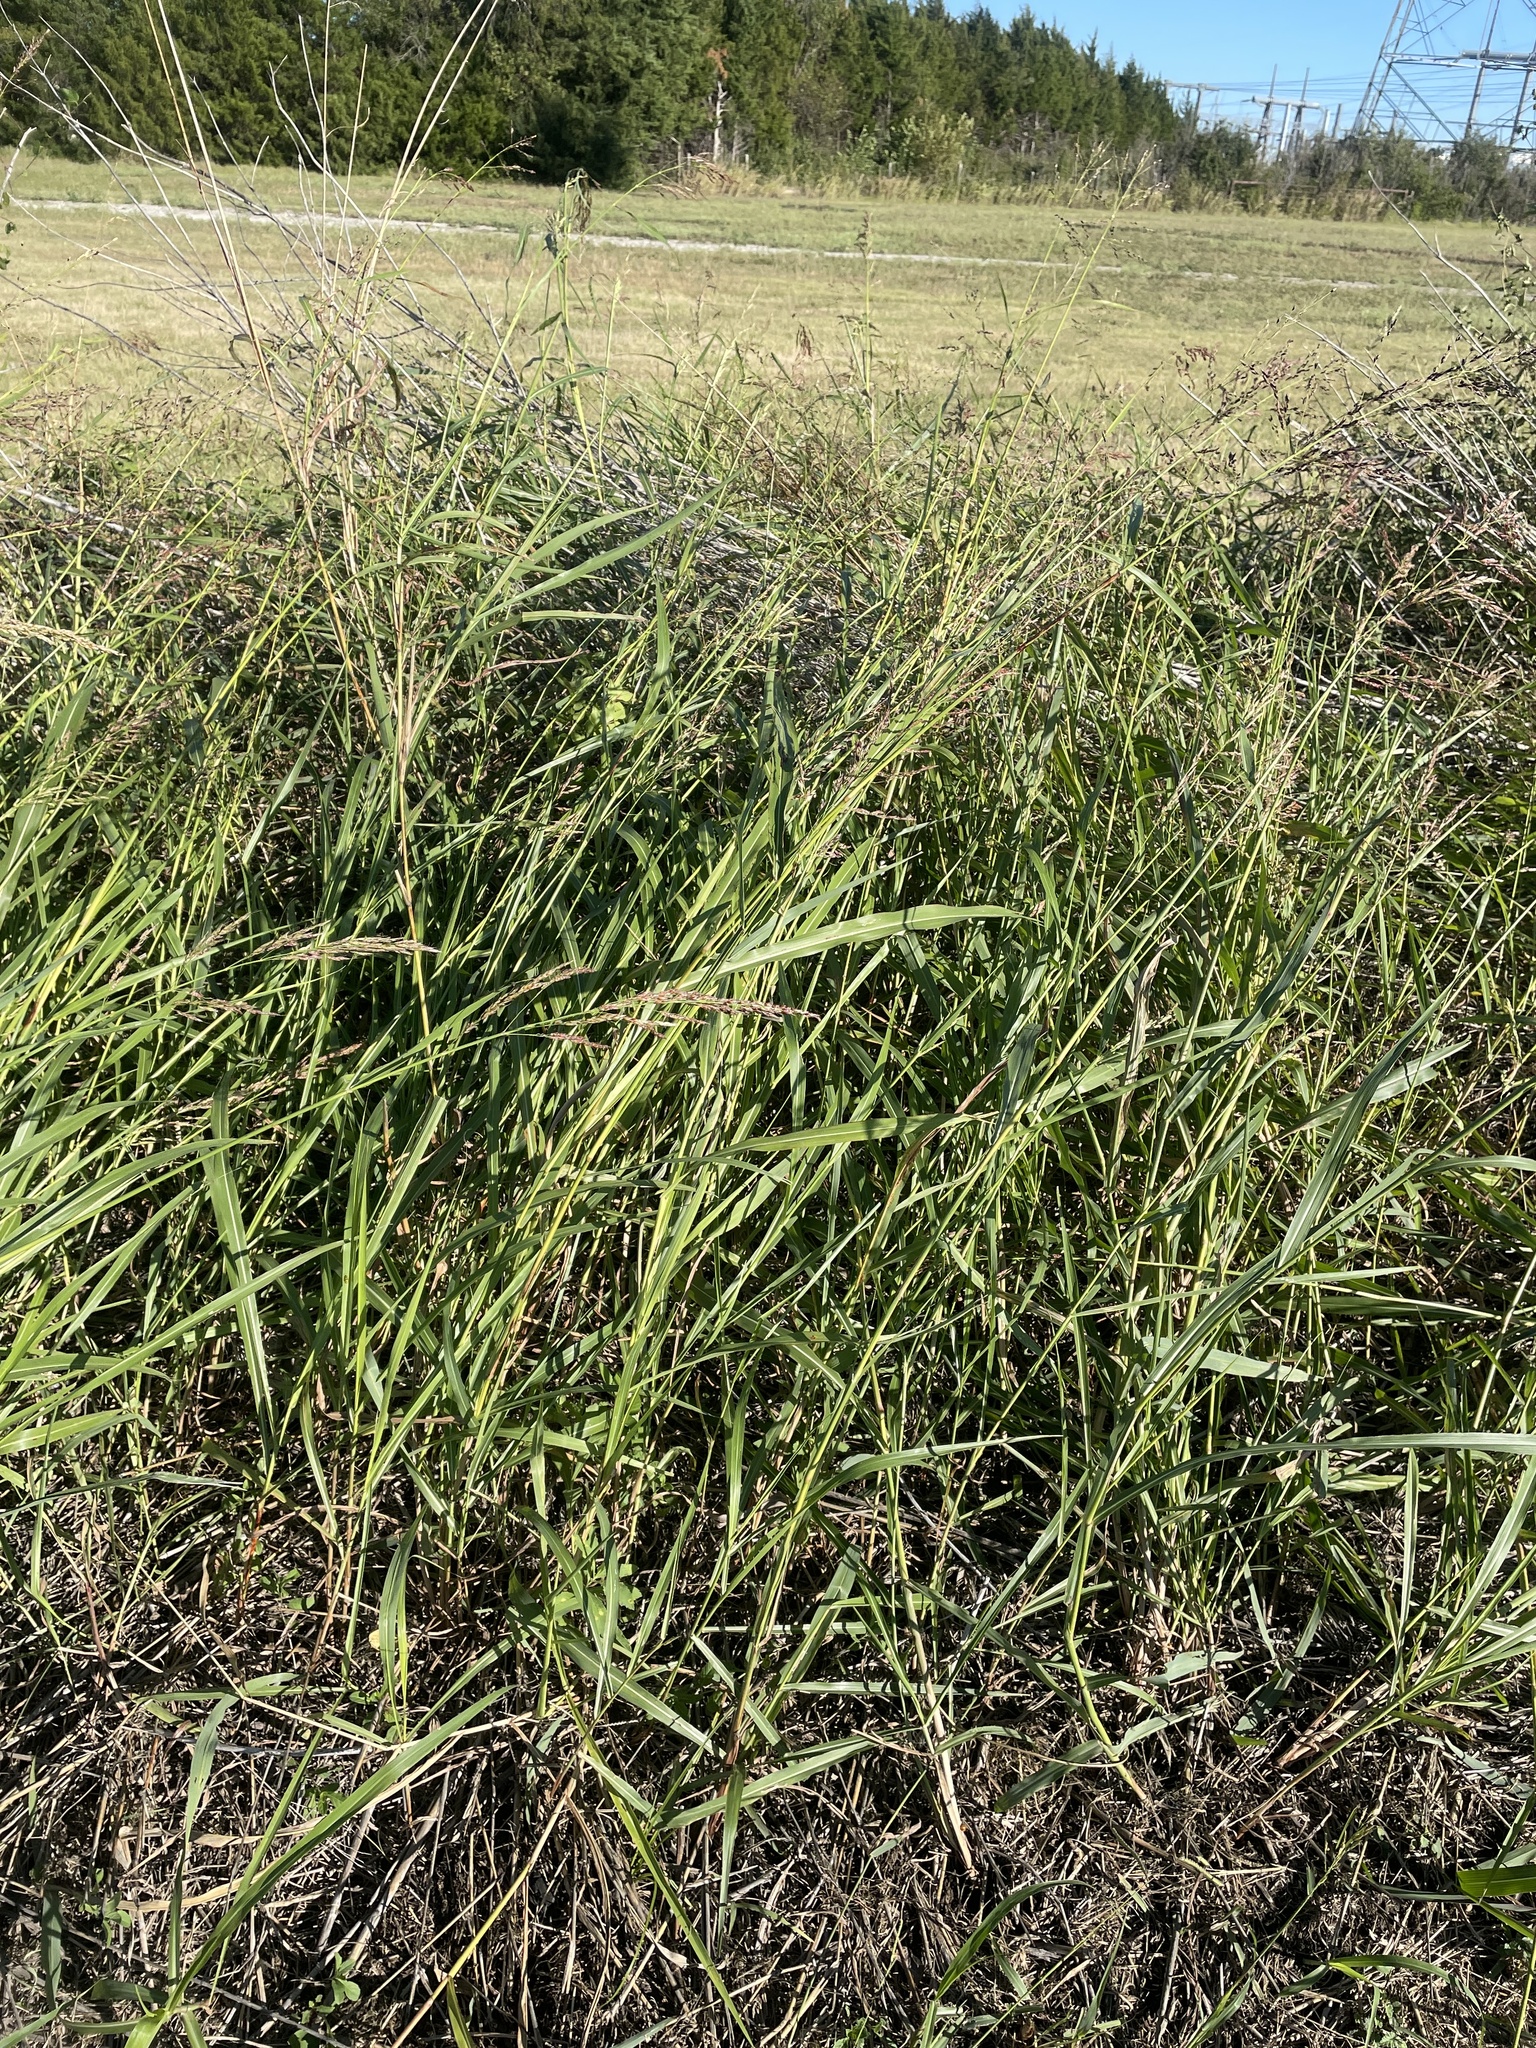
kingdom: Plantae
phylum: Tracheophyta
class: Liliopsida
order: Poales
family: Poaceae
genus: Sorghum
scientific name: Sorghum halepense
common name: Johnson-grass
